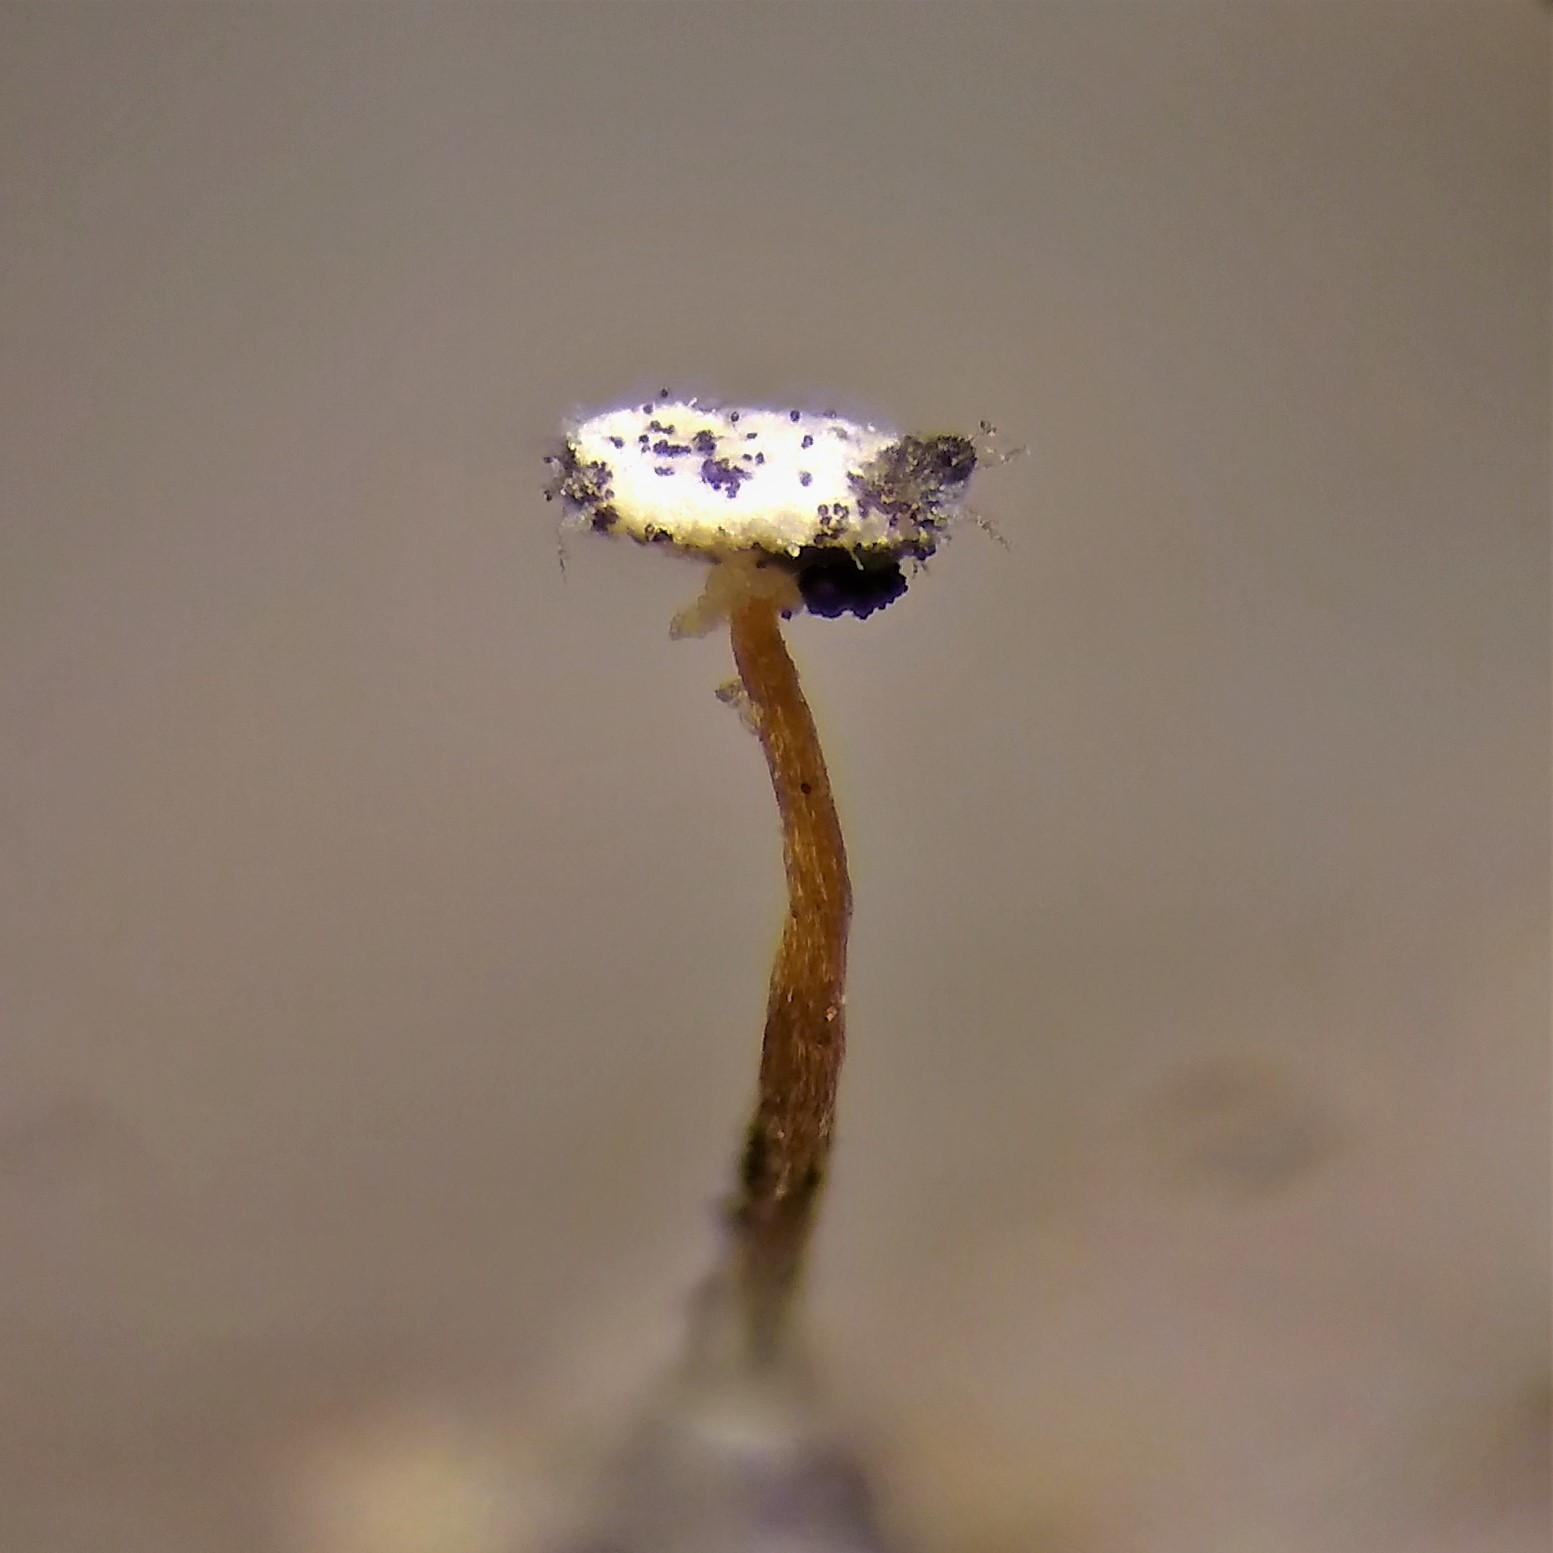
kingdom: Protozoa
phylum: Mycetozoa
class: Myxomycetes
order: Physarales
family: Didymiaceae
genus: Didymium
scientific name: Didymium bahiense
